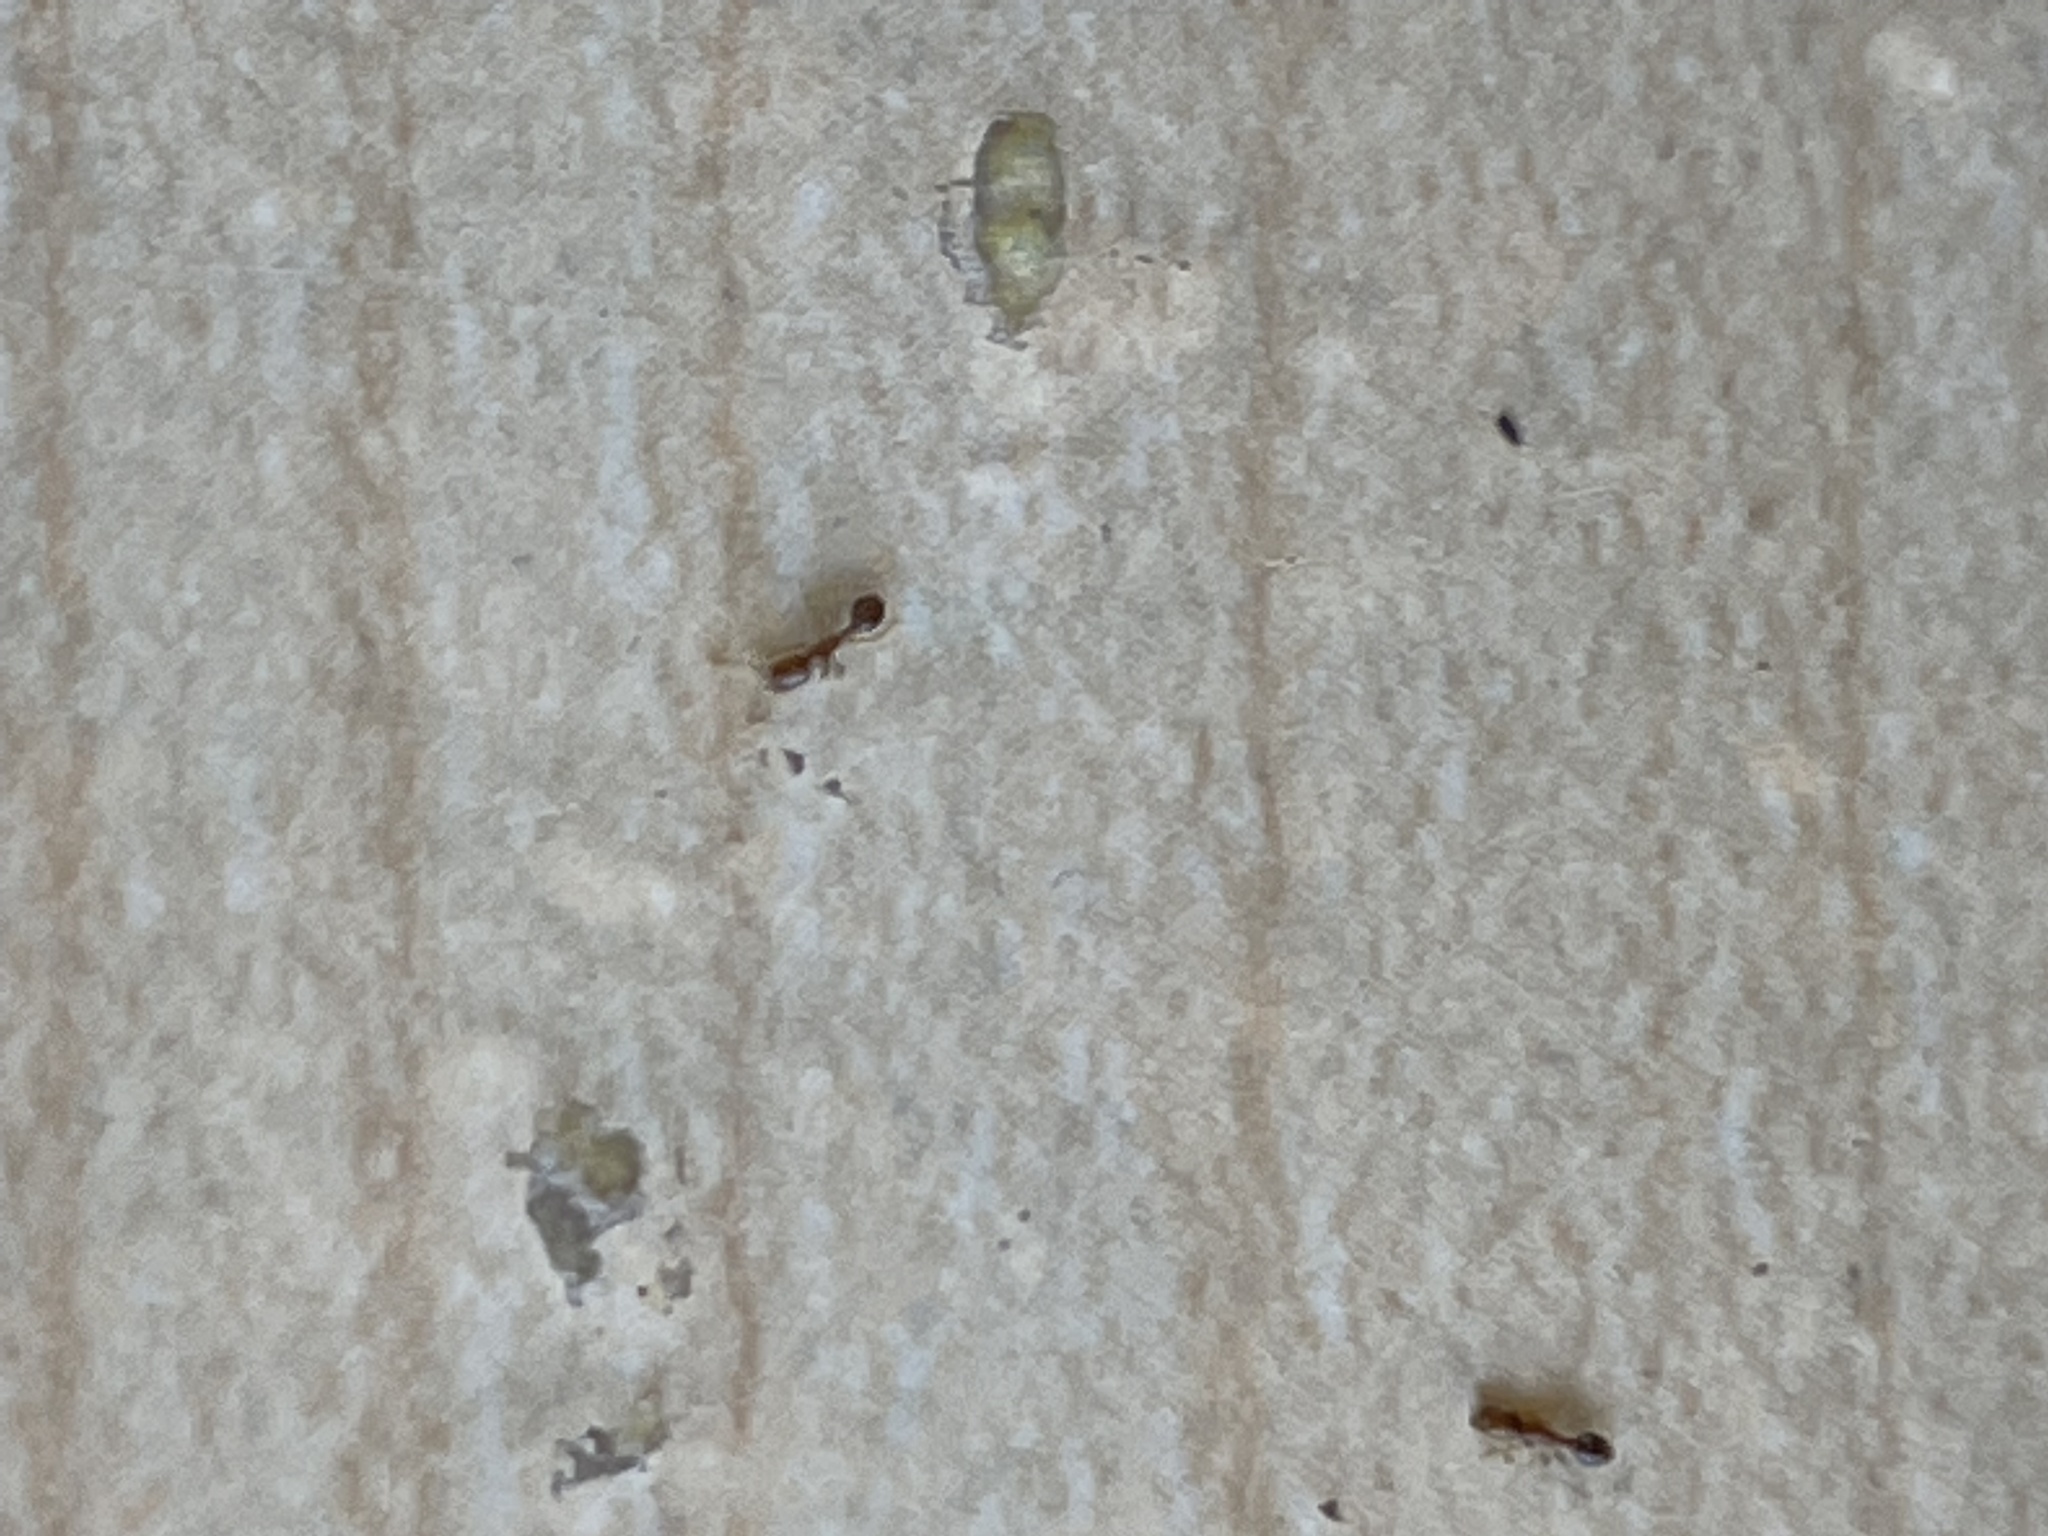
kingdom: Animalia
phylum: Arthropoda
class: Insecta
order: Hymenoptera
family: Formicidae
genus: Solenopsis
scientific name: Solenopsis molesta
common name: Thief ant
